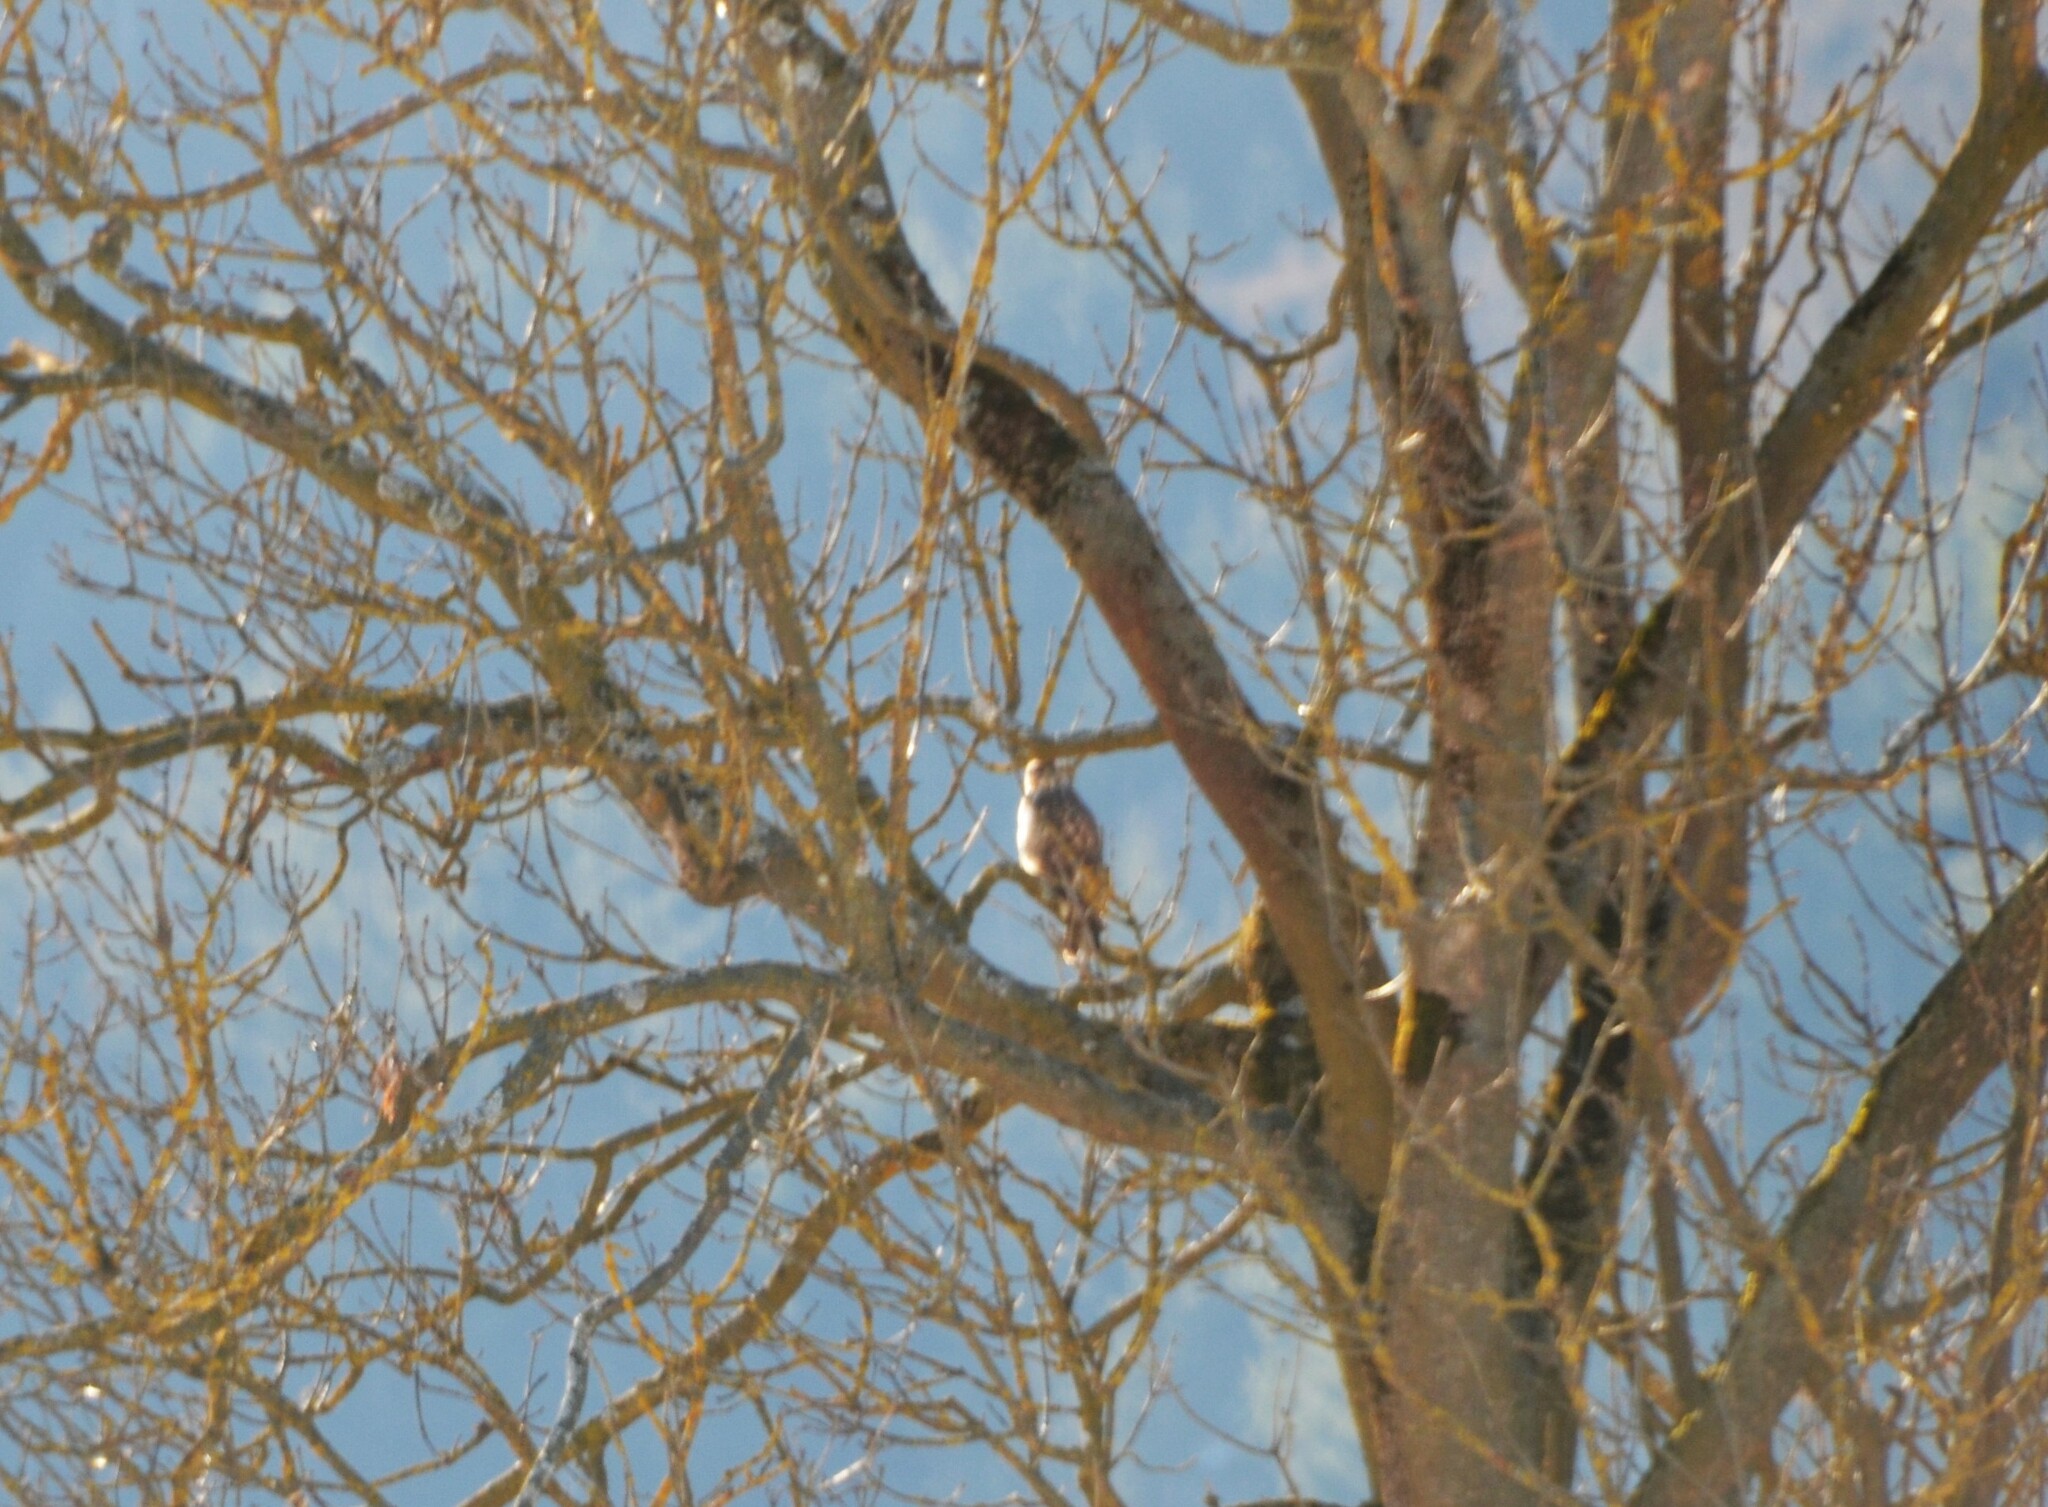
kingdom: Animalia
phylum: Chordata
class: Aves
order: Accipitriformes
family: Accipitridae
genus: Buteo
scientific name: Buteo buteo
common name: Common buzzard
